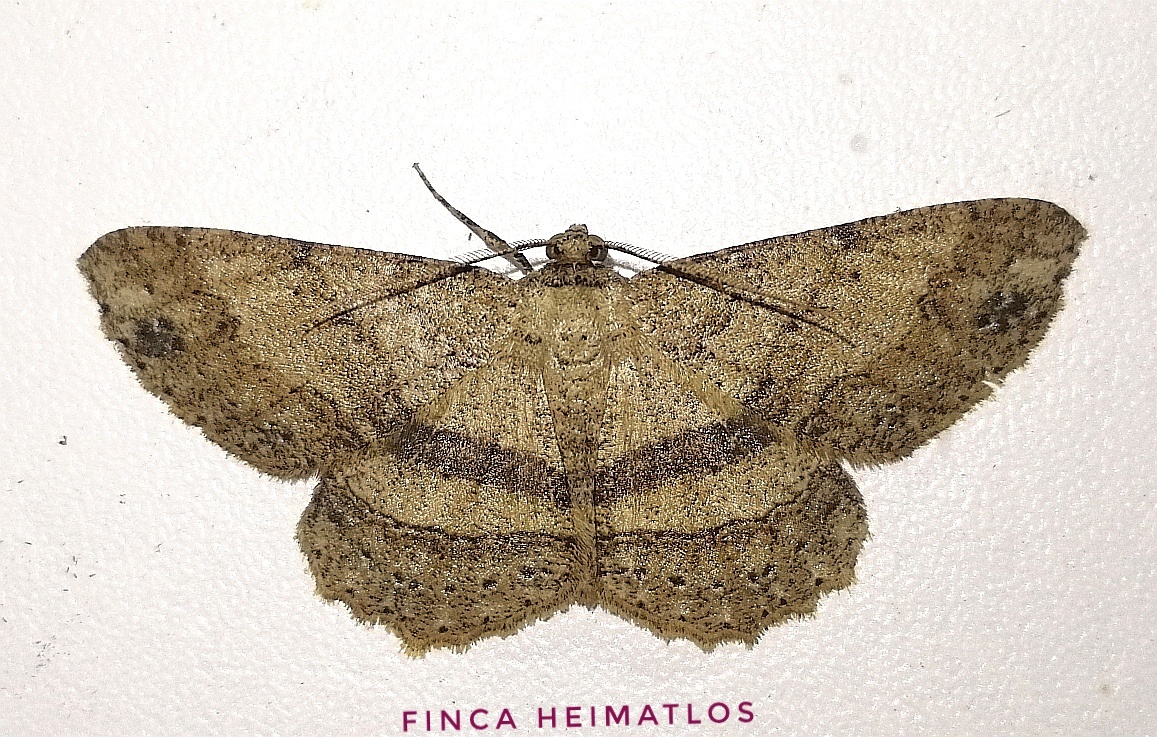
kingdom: Animalia
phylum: Arthropoda
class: Insecta
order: Lepidoptera
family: Geometridae
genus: Melanolophia
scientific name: Melanolophia muscosa
